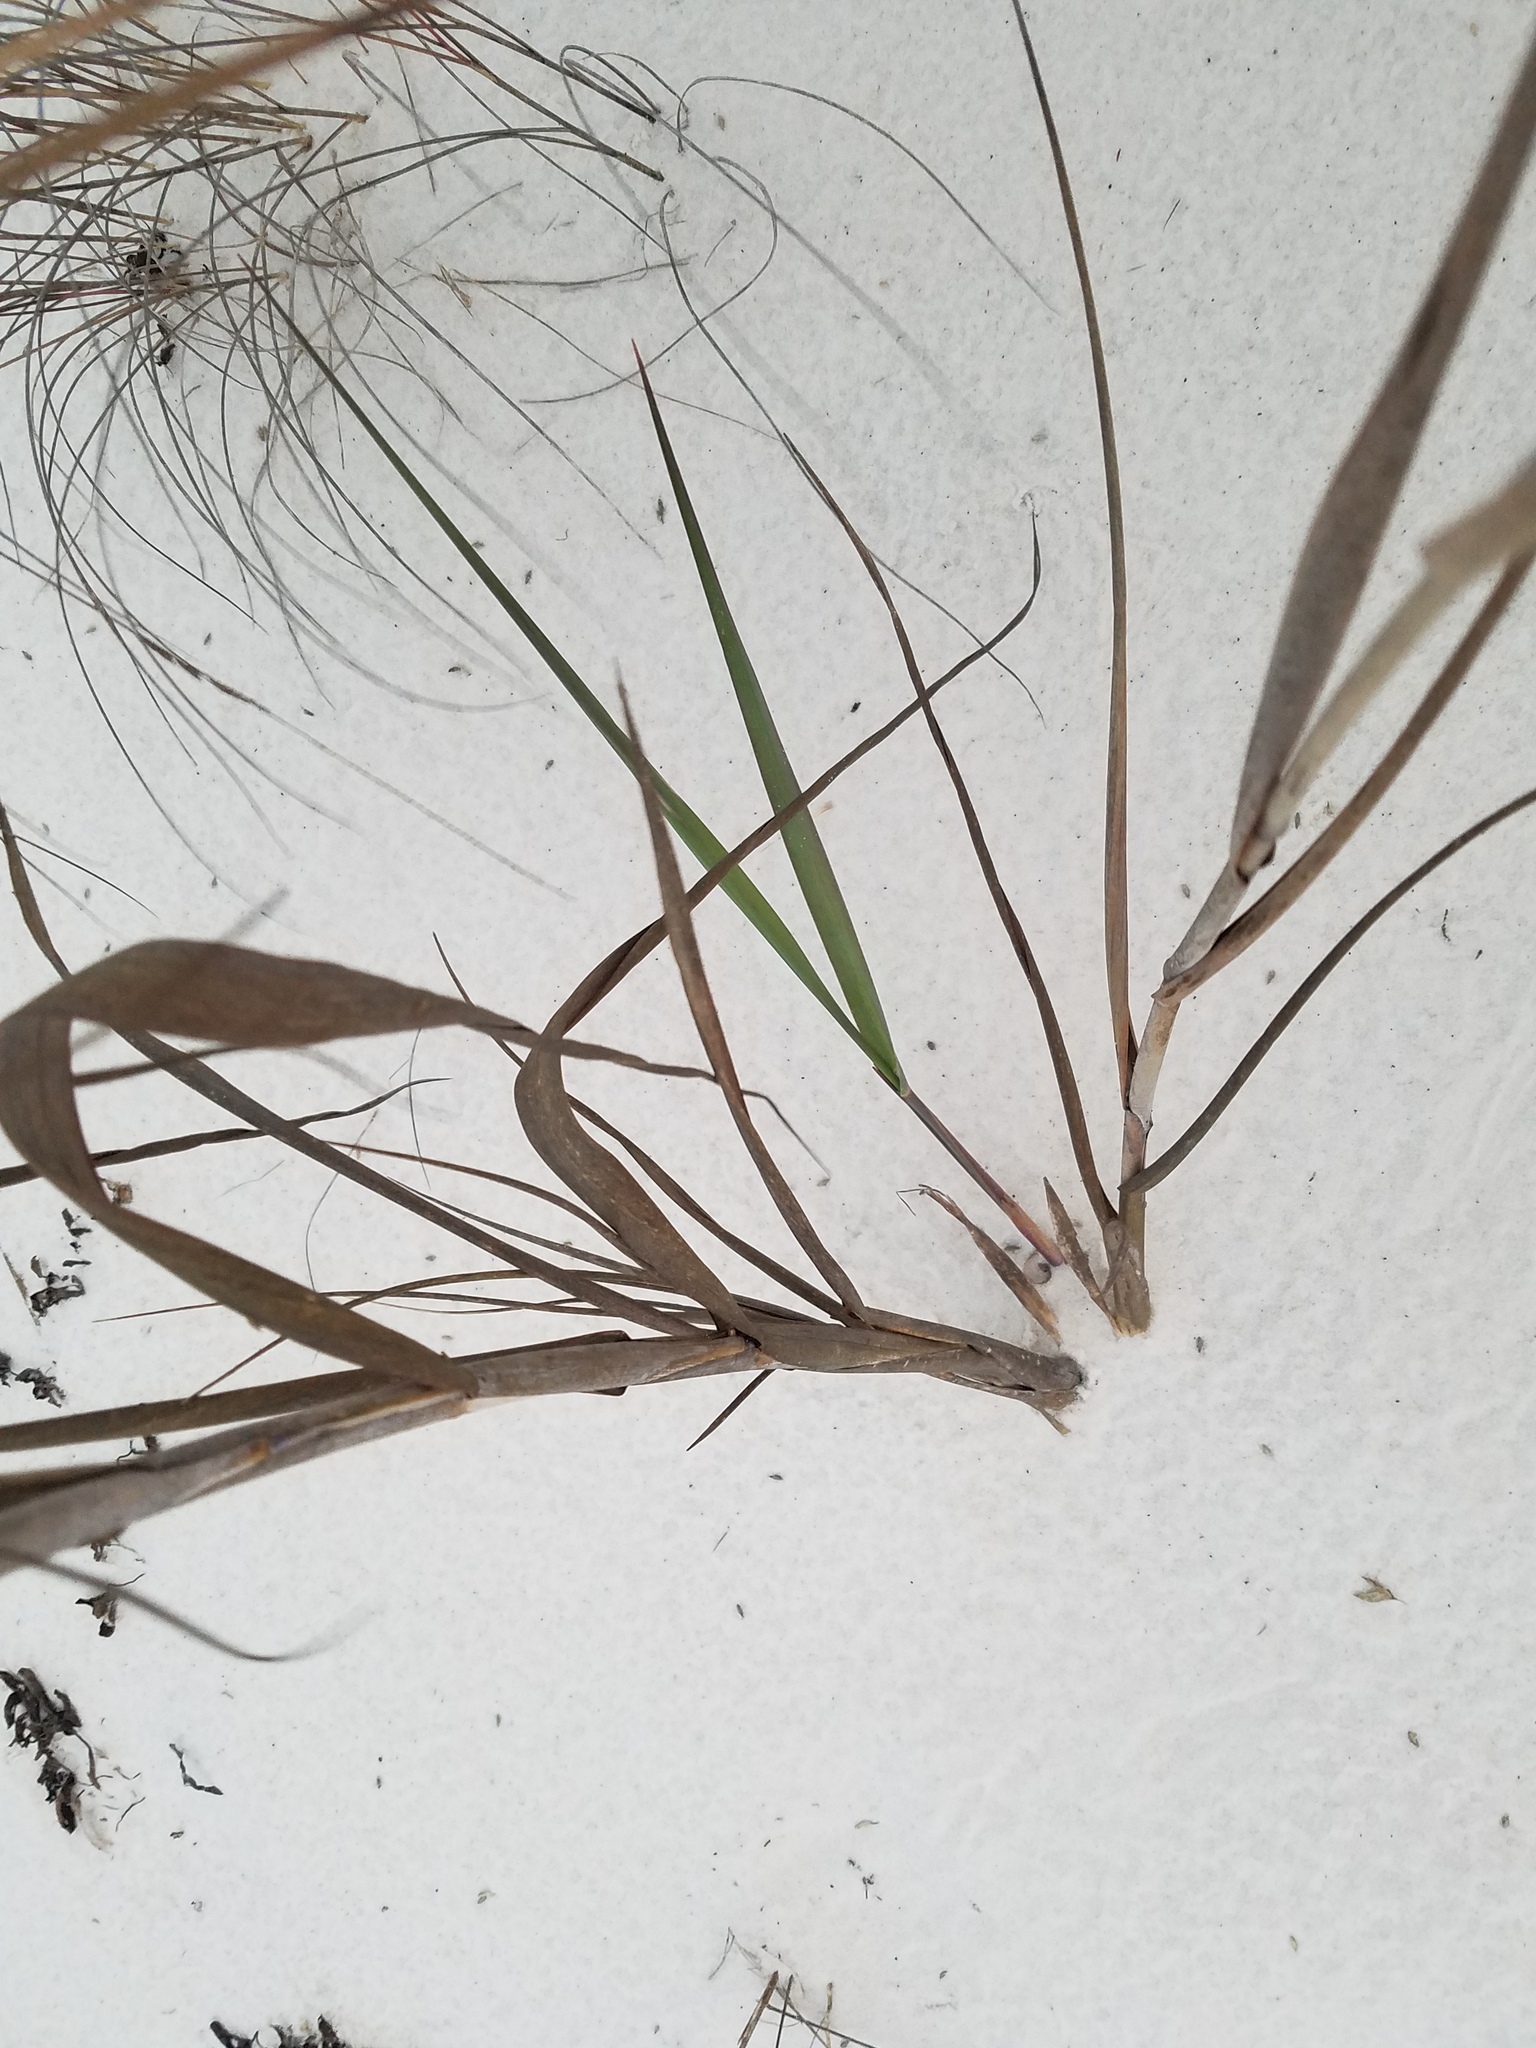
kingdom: Plantae
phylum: Tracheophyta
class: Liliopsida
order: Poales
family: Poaceae
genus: Panicum
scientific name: Panicum amarum
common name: Bitter panicum
